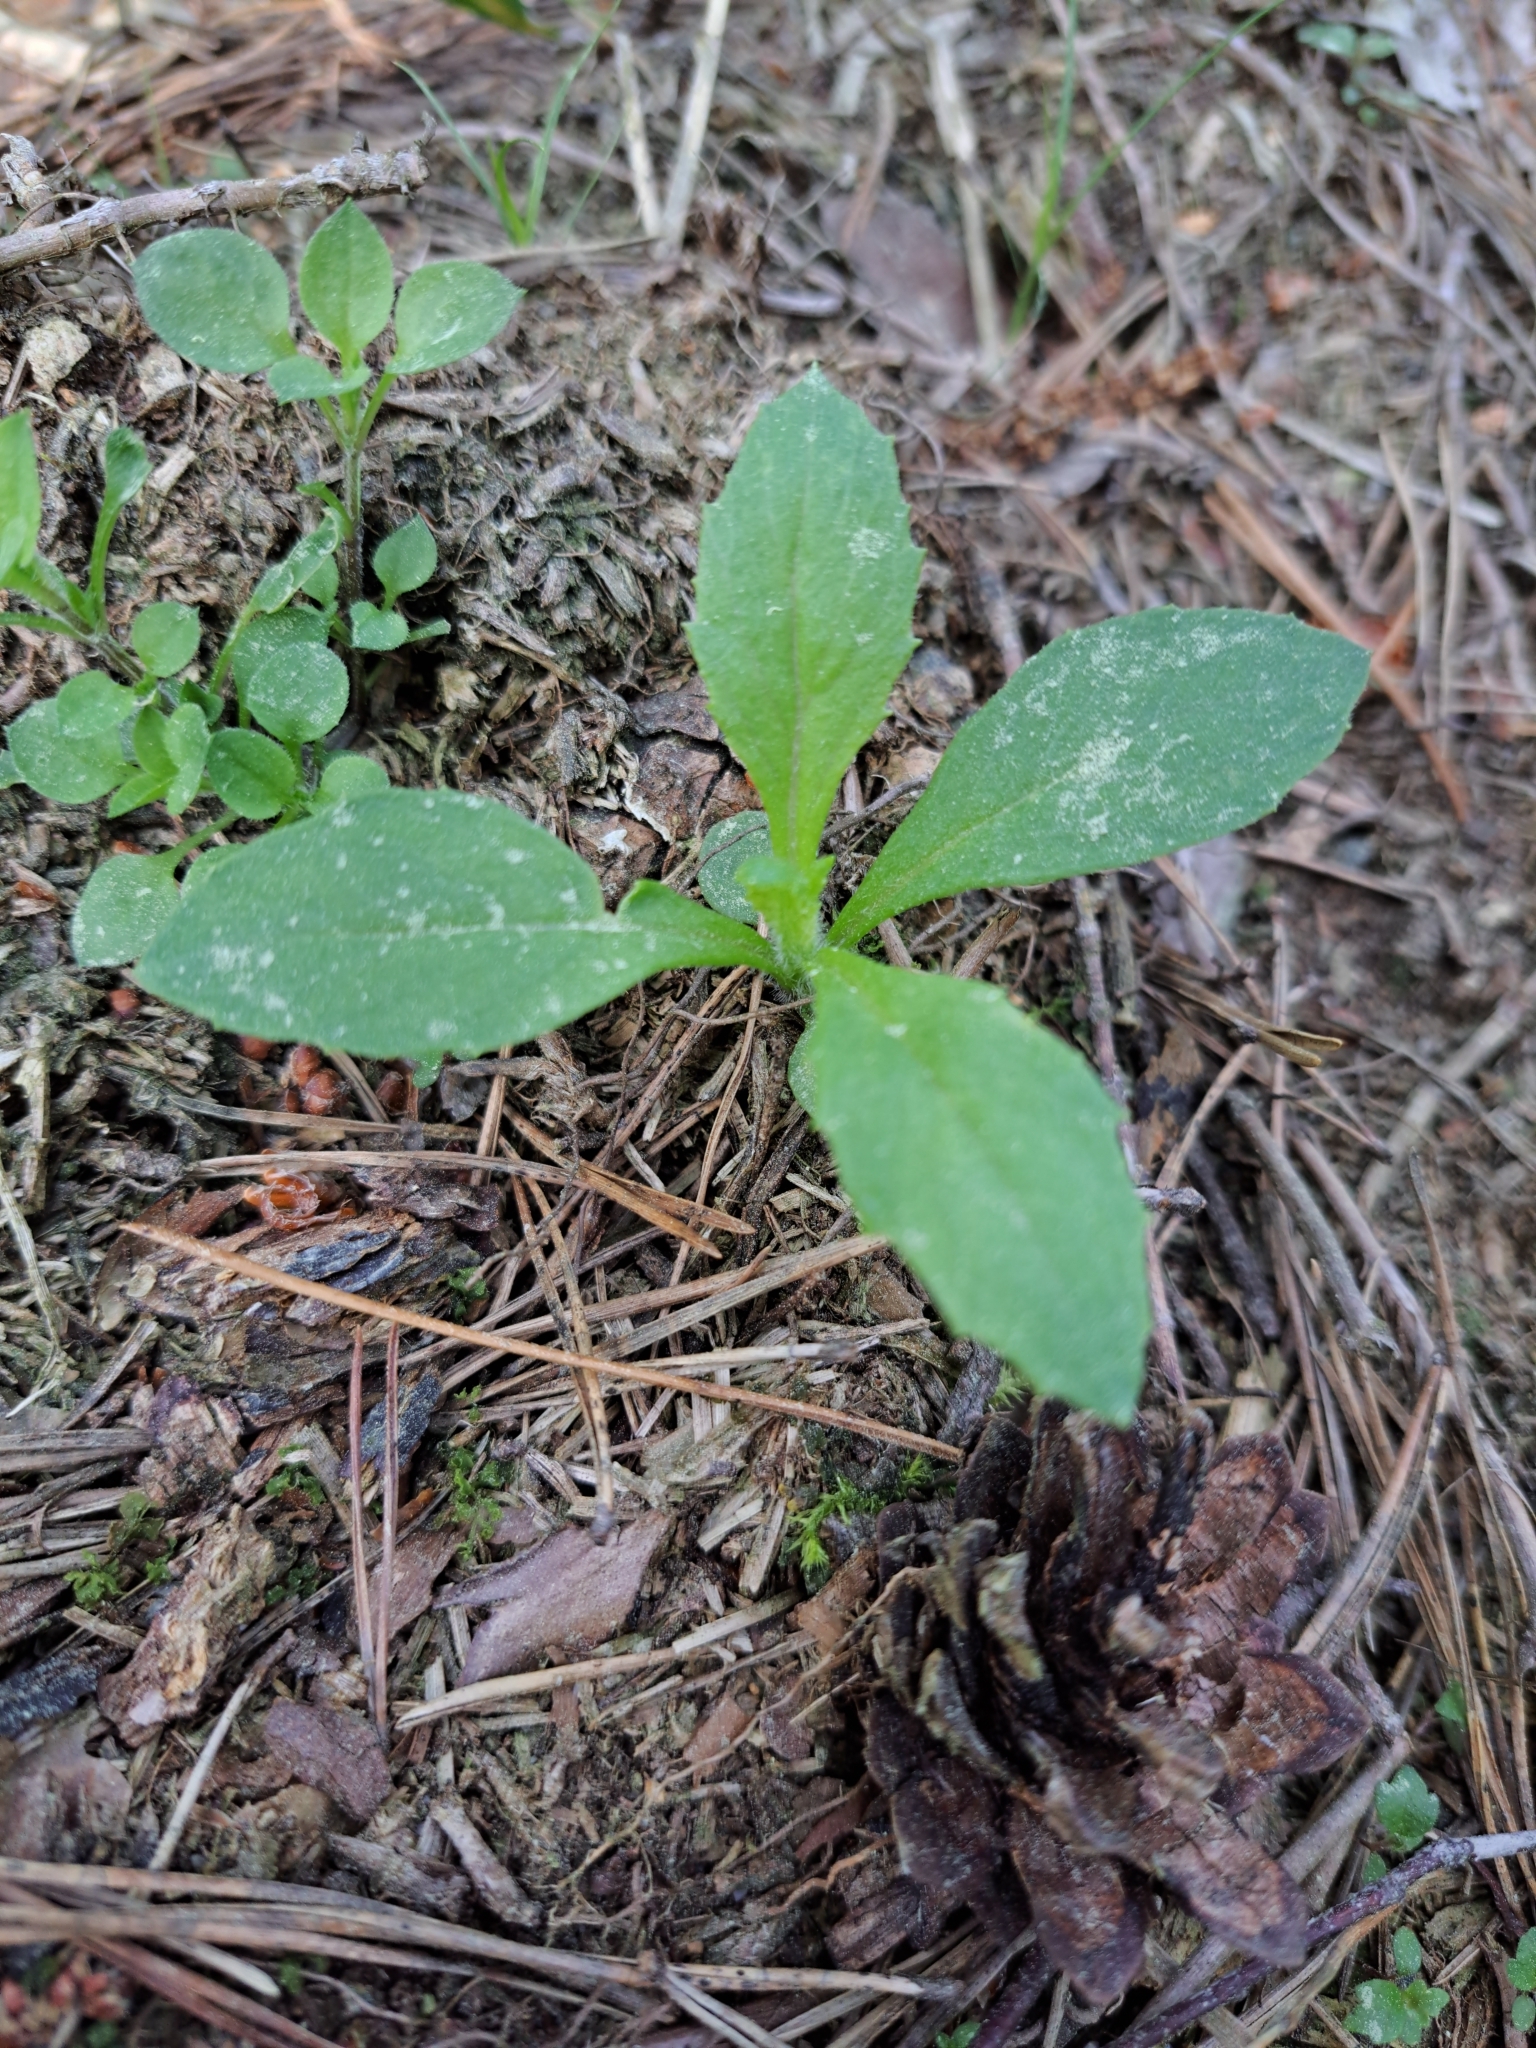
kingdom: Plantae
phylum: Tracheophyta
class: Magnoliopsida
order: Asterales
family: Asteraceae
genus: Erechtites
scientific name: Erechtites hieraciifolius
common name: American burnweed
